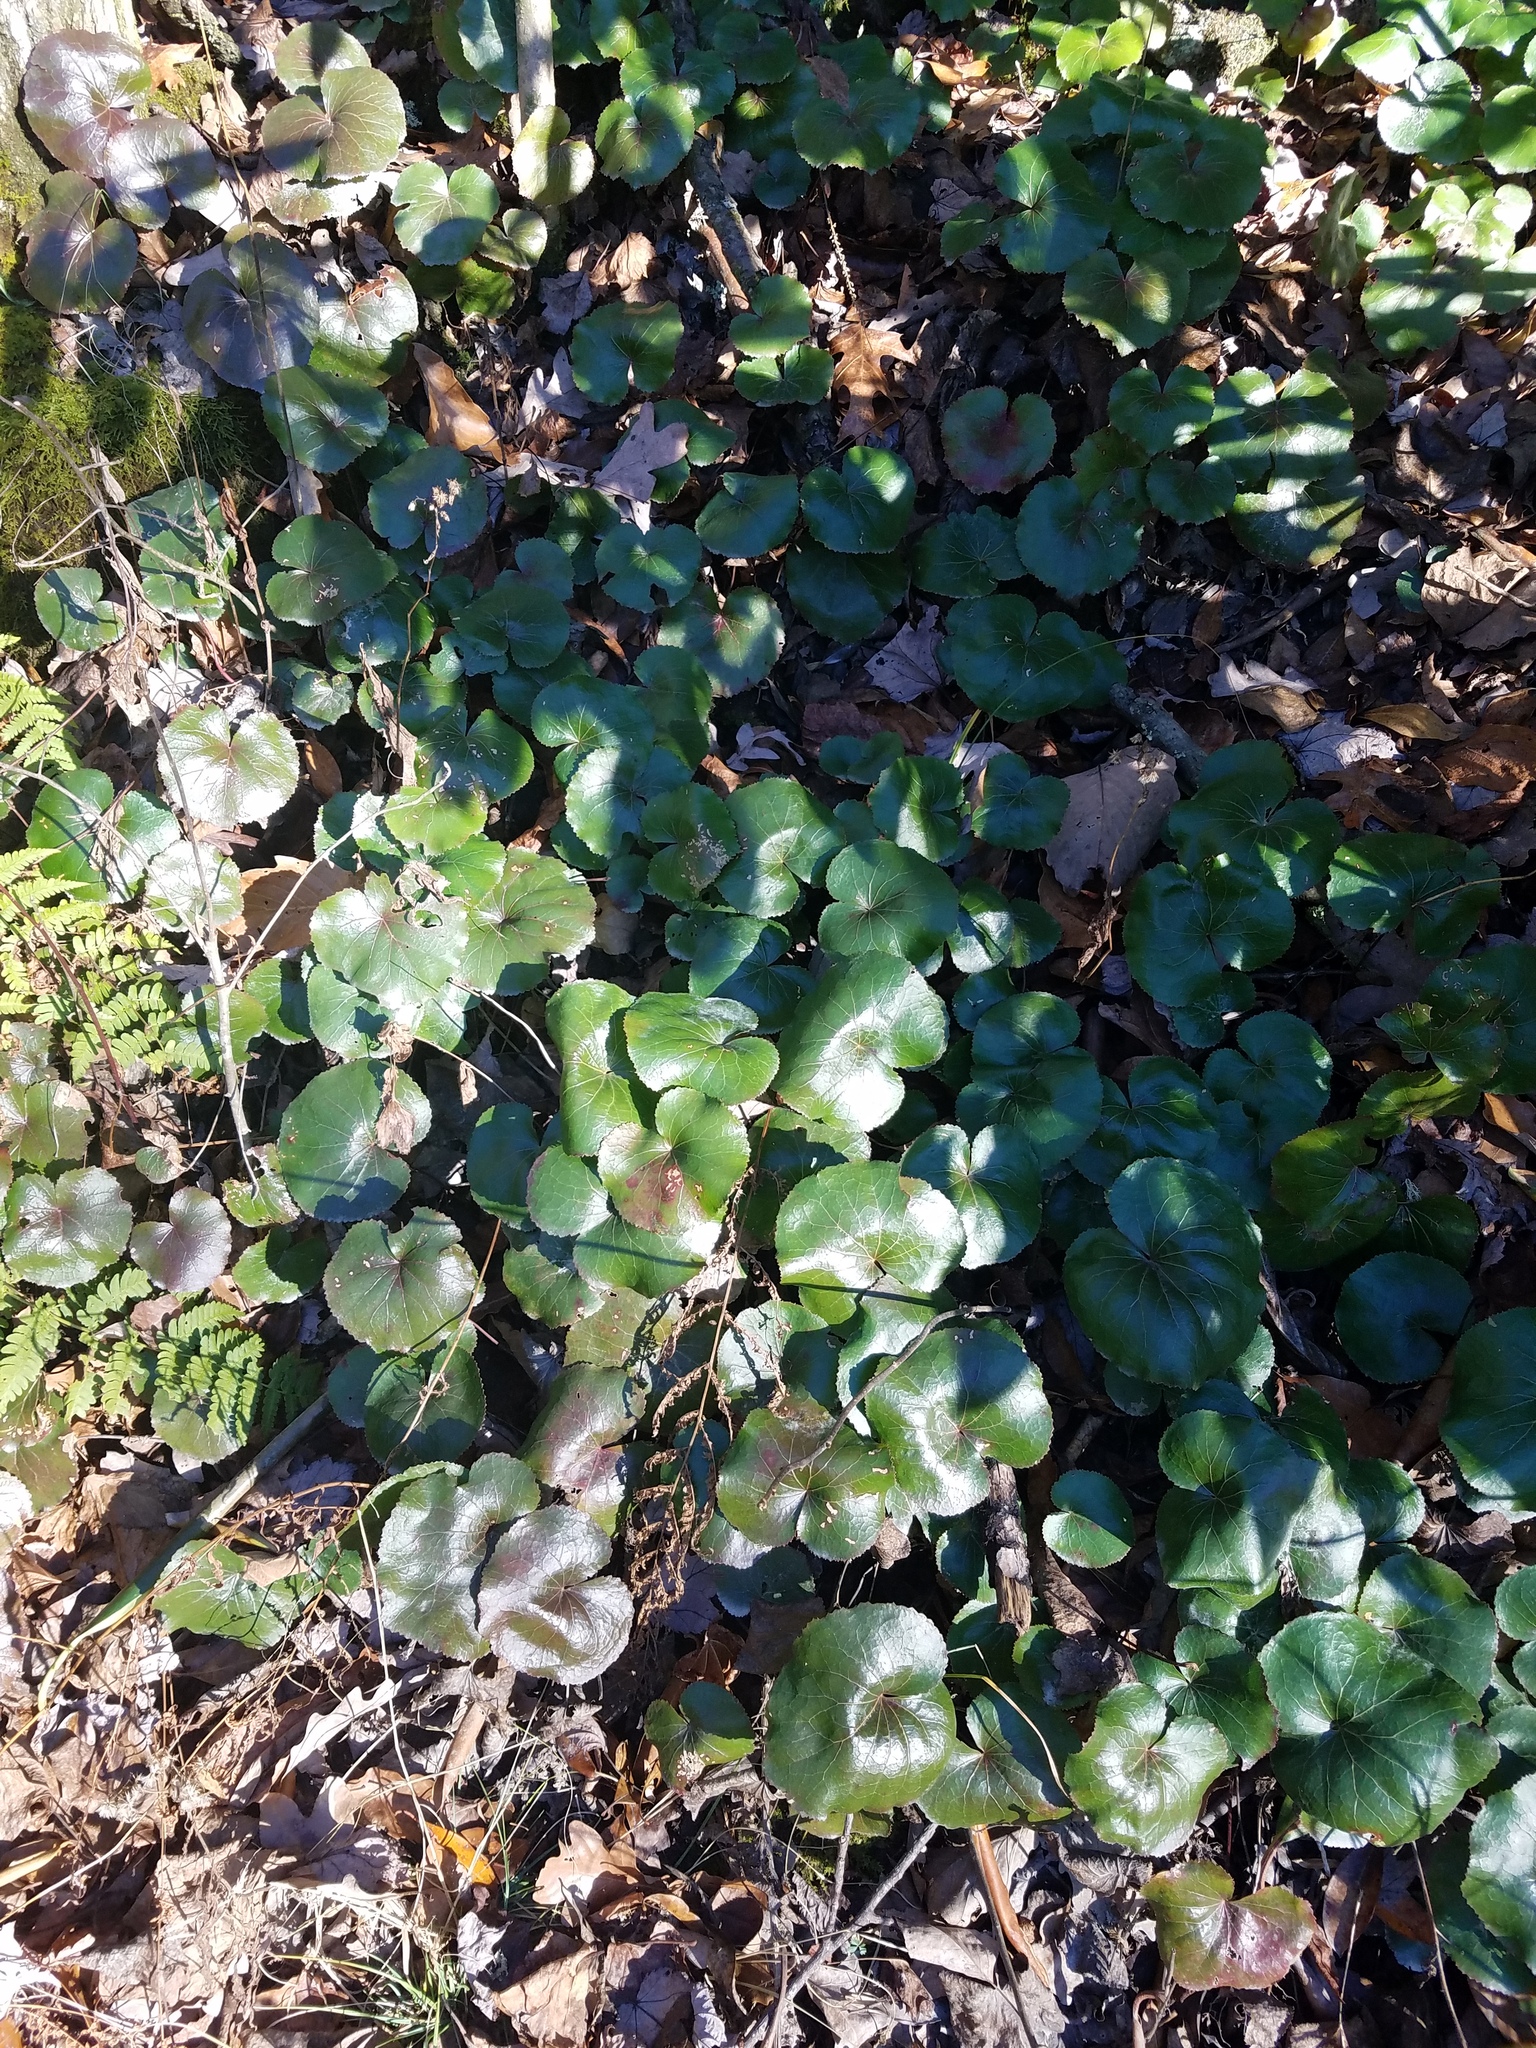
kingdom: Plantae
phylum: Tracheophyta
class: Magnoliopsida
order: Ericales
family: Diapensiaceae
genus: Galax
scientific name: Galax urceolata
